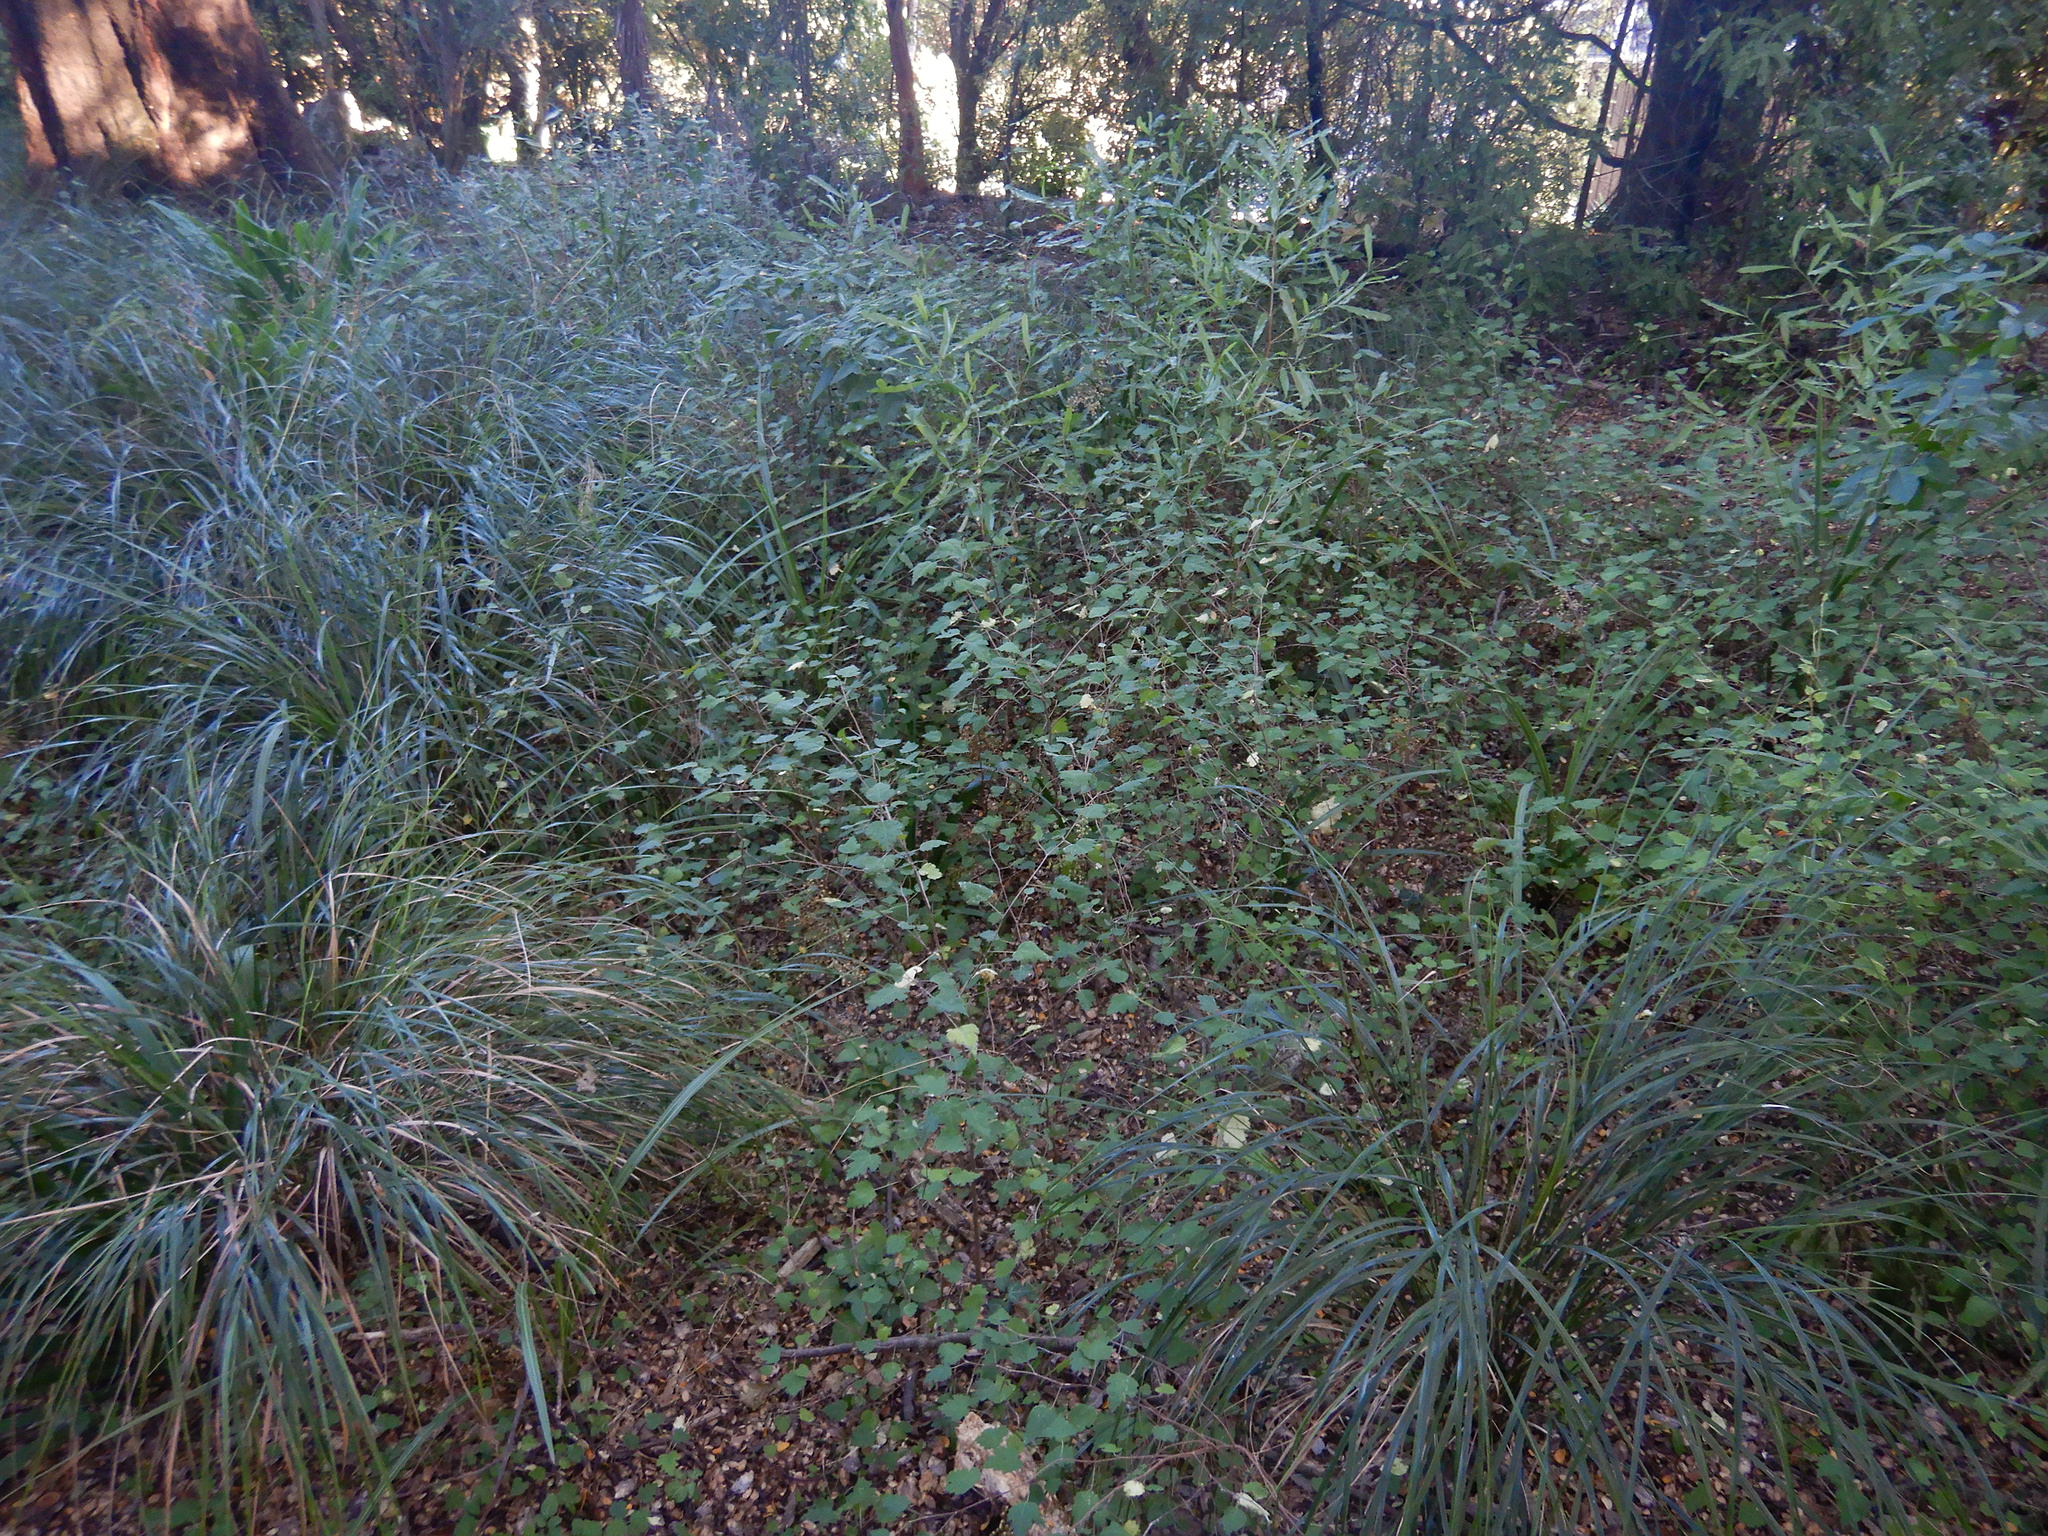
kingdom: Plantae
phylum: Tracheophyta
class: Magnoliopsida
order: Malvales
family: Malvaceae
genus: Plagianthus
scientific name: Plagianthus regius
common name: Manatu
